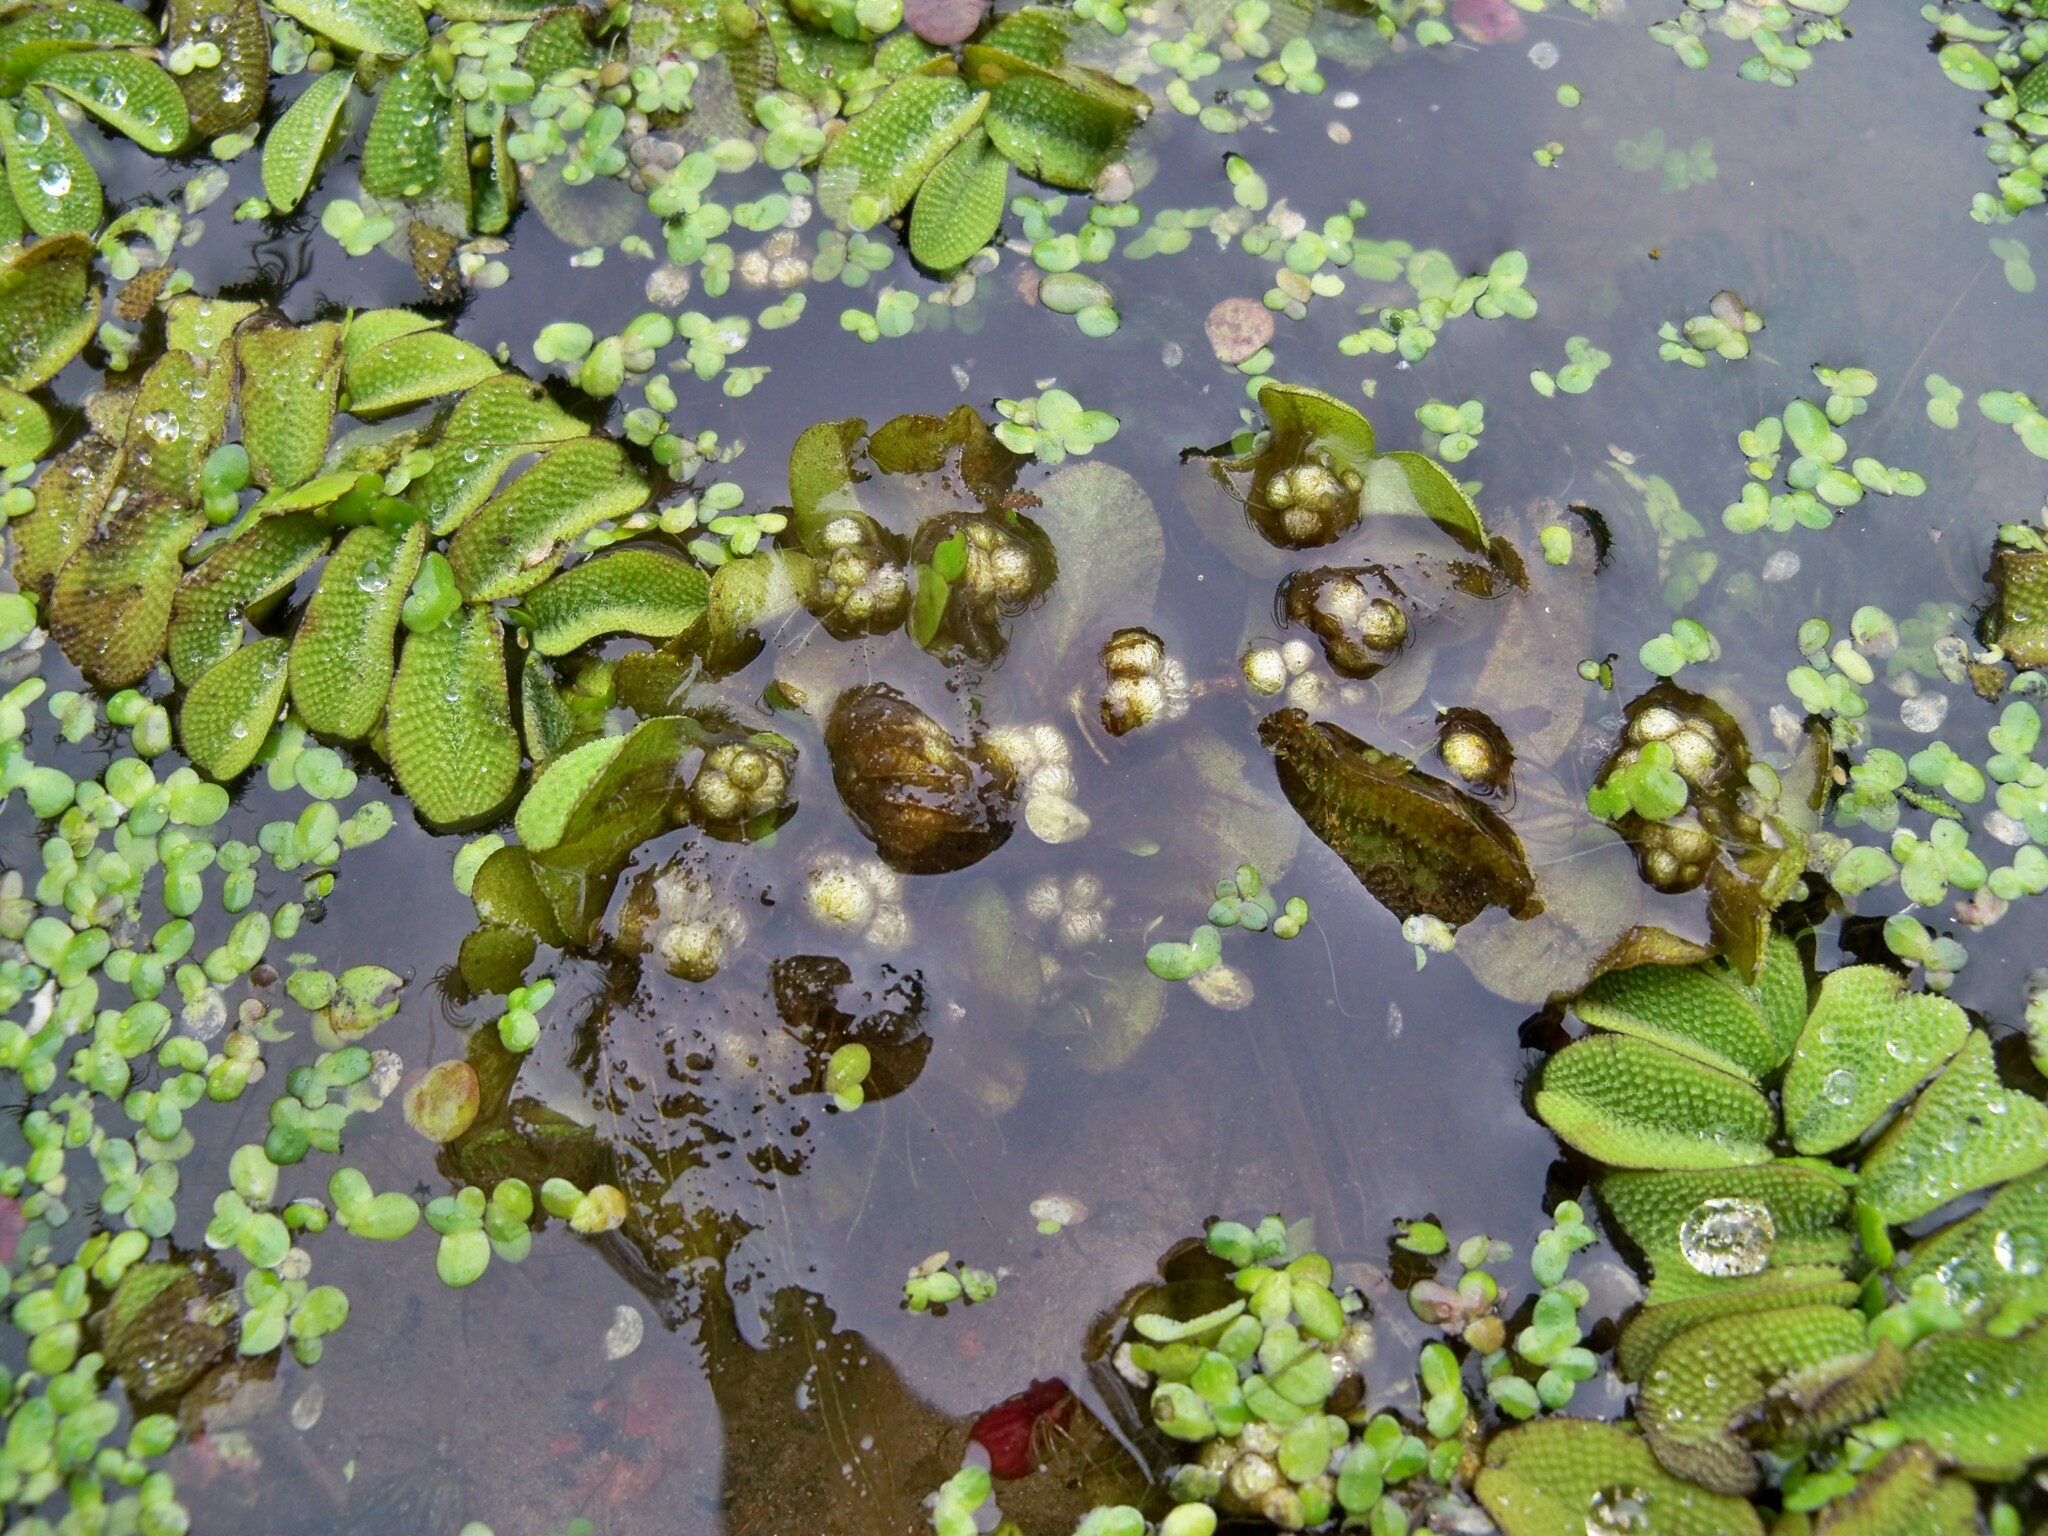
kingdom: Plantae
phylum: Tracheophyta
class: Polypodiopsida
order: Salviniales
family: Salviniaceae
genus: Salvinia
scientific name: Salvinia natans
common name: Floating fern
